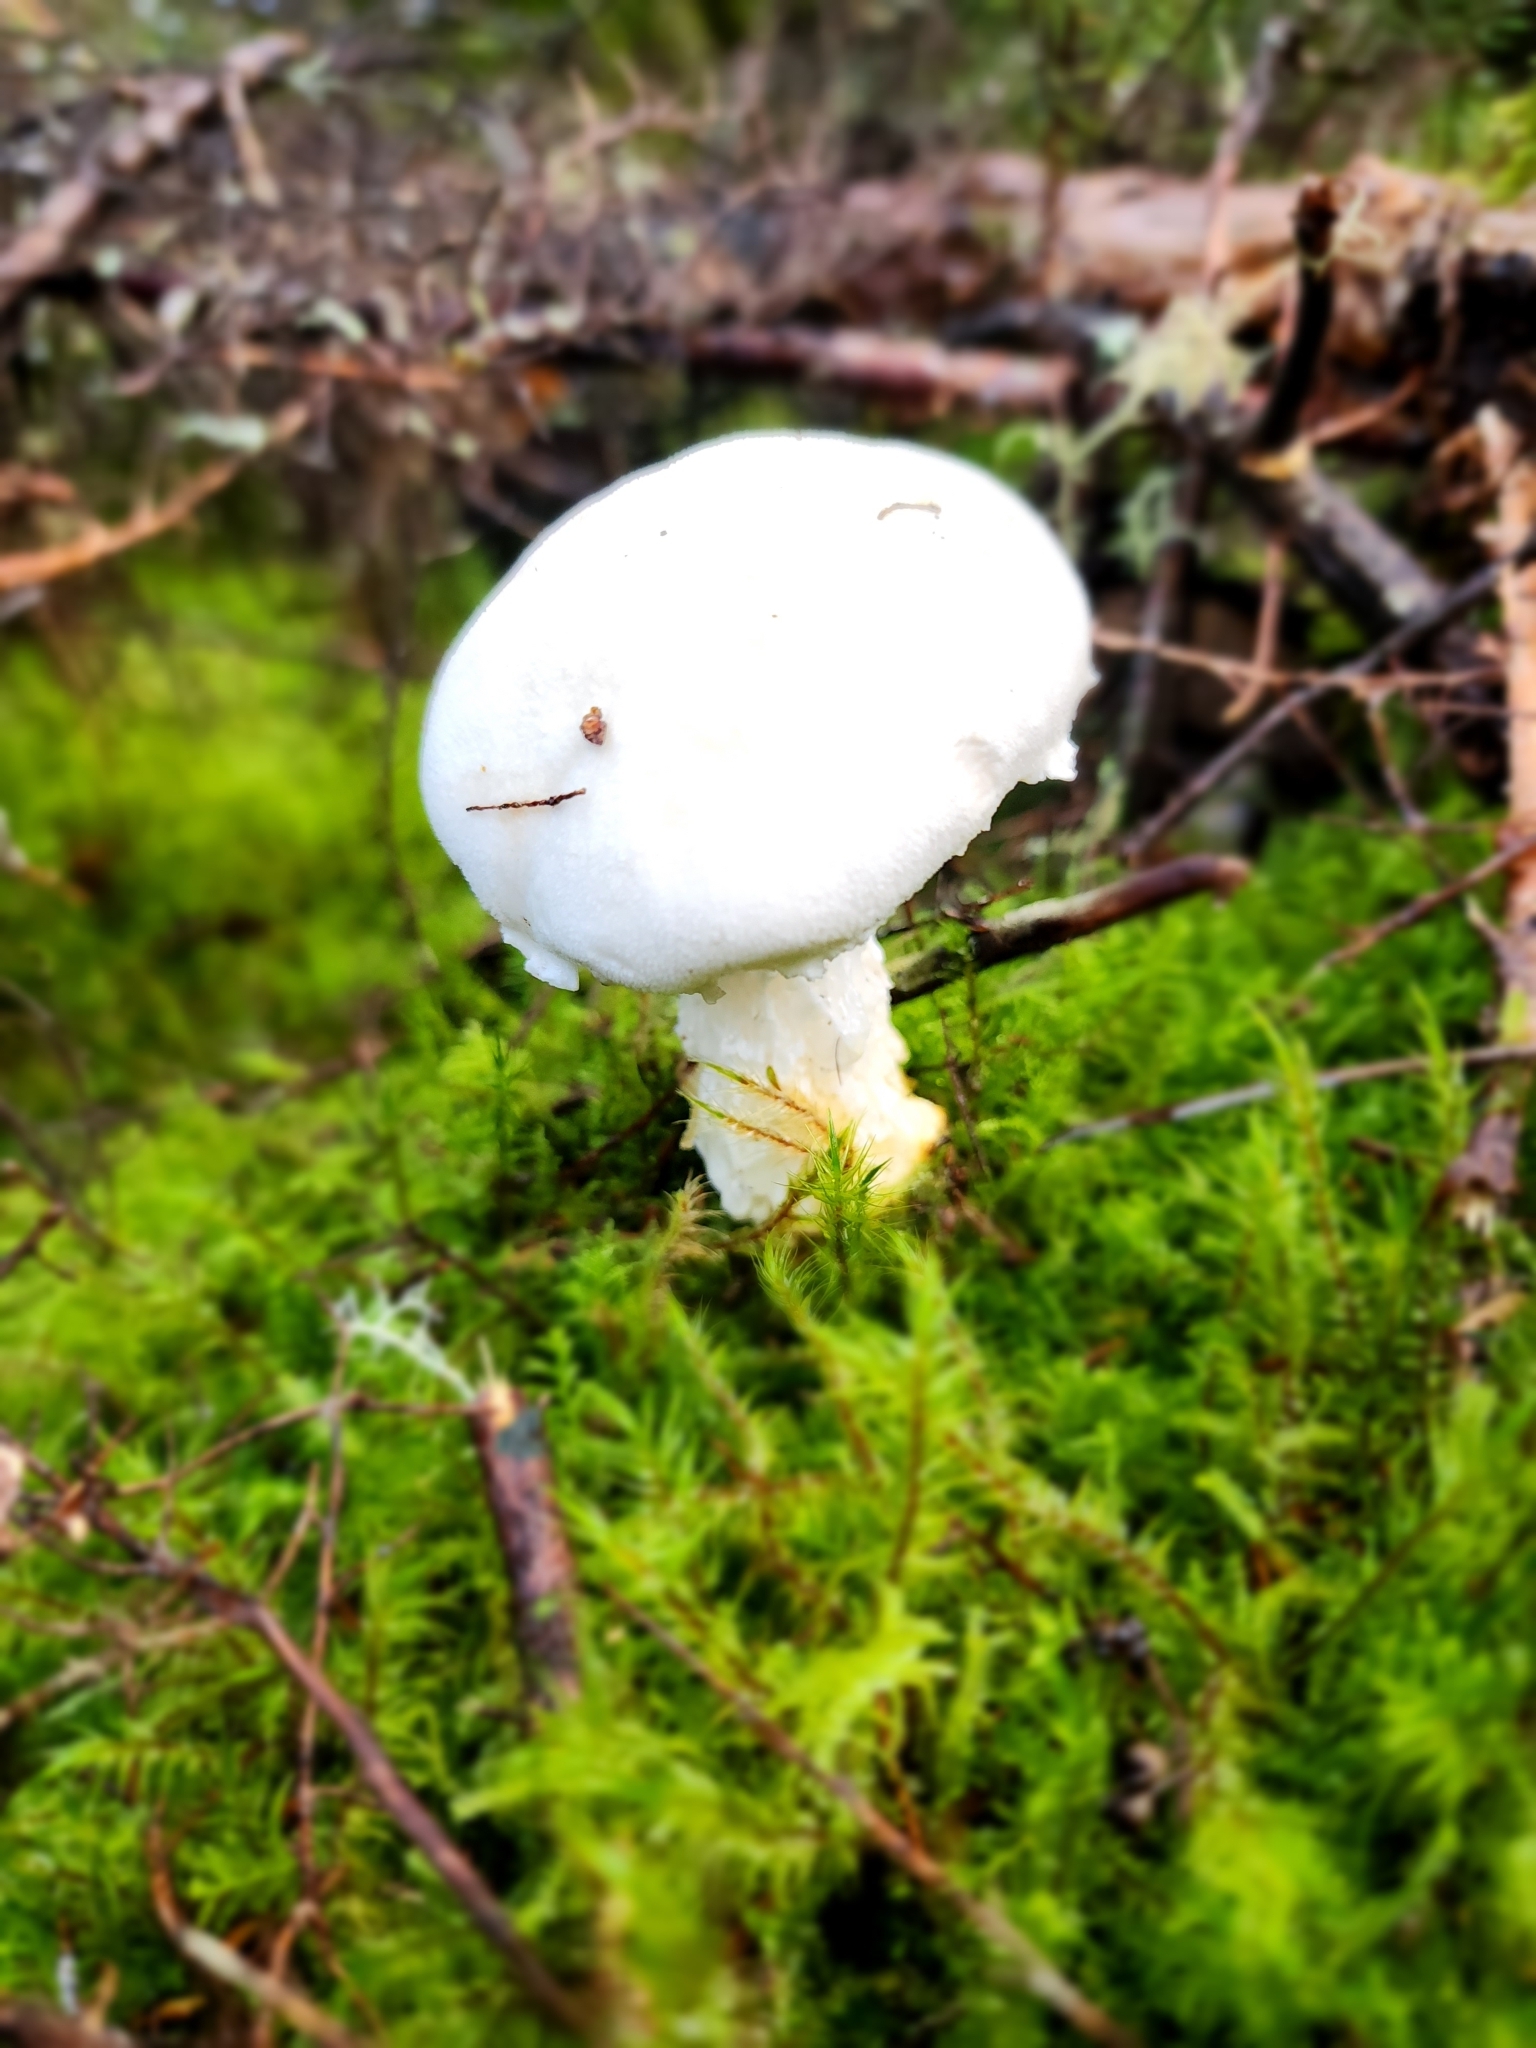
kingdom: Fungi
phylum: Basidiomycota
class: Agaricomycetes
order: Boletales
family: Boletaceae
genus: Fistulinella
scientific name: Fistulinella nivea
